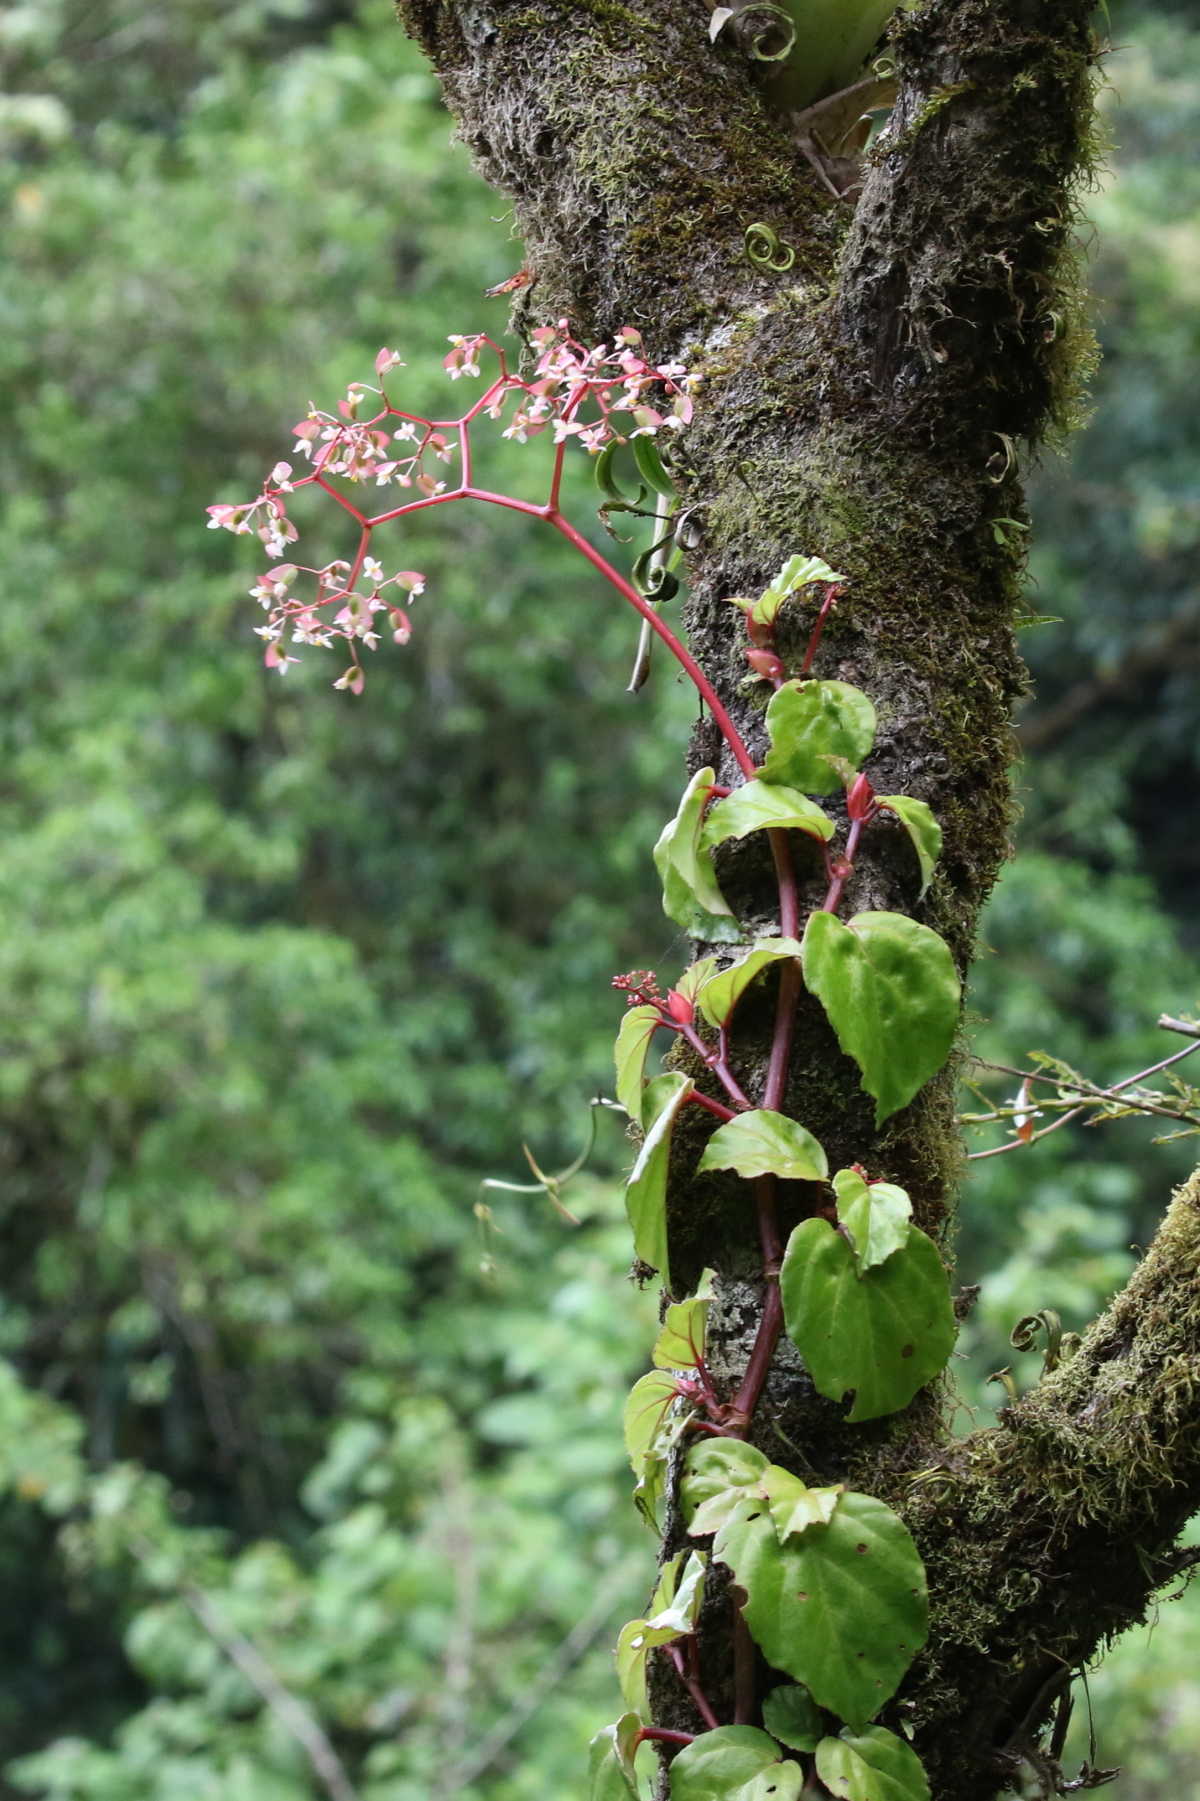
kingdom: Plantae
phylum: Tracheophyta
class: Magnoliopsida
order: Cucurbitales
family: Begoniaceae
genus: Begonia
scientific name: Begonia glabra
